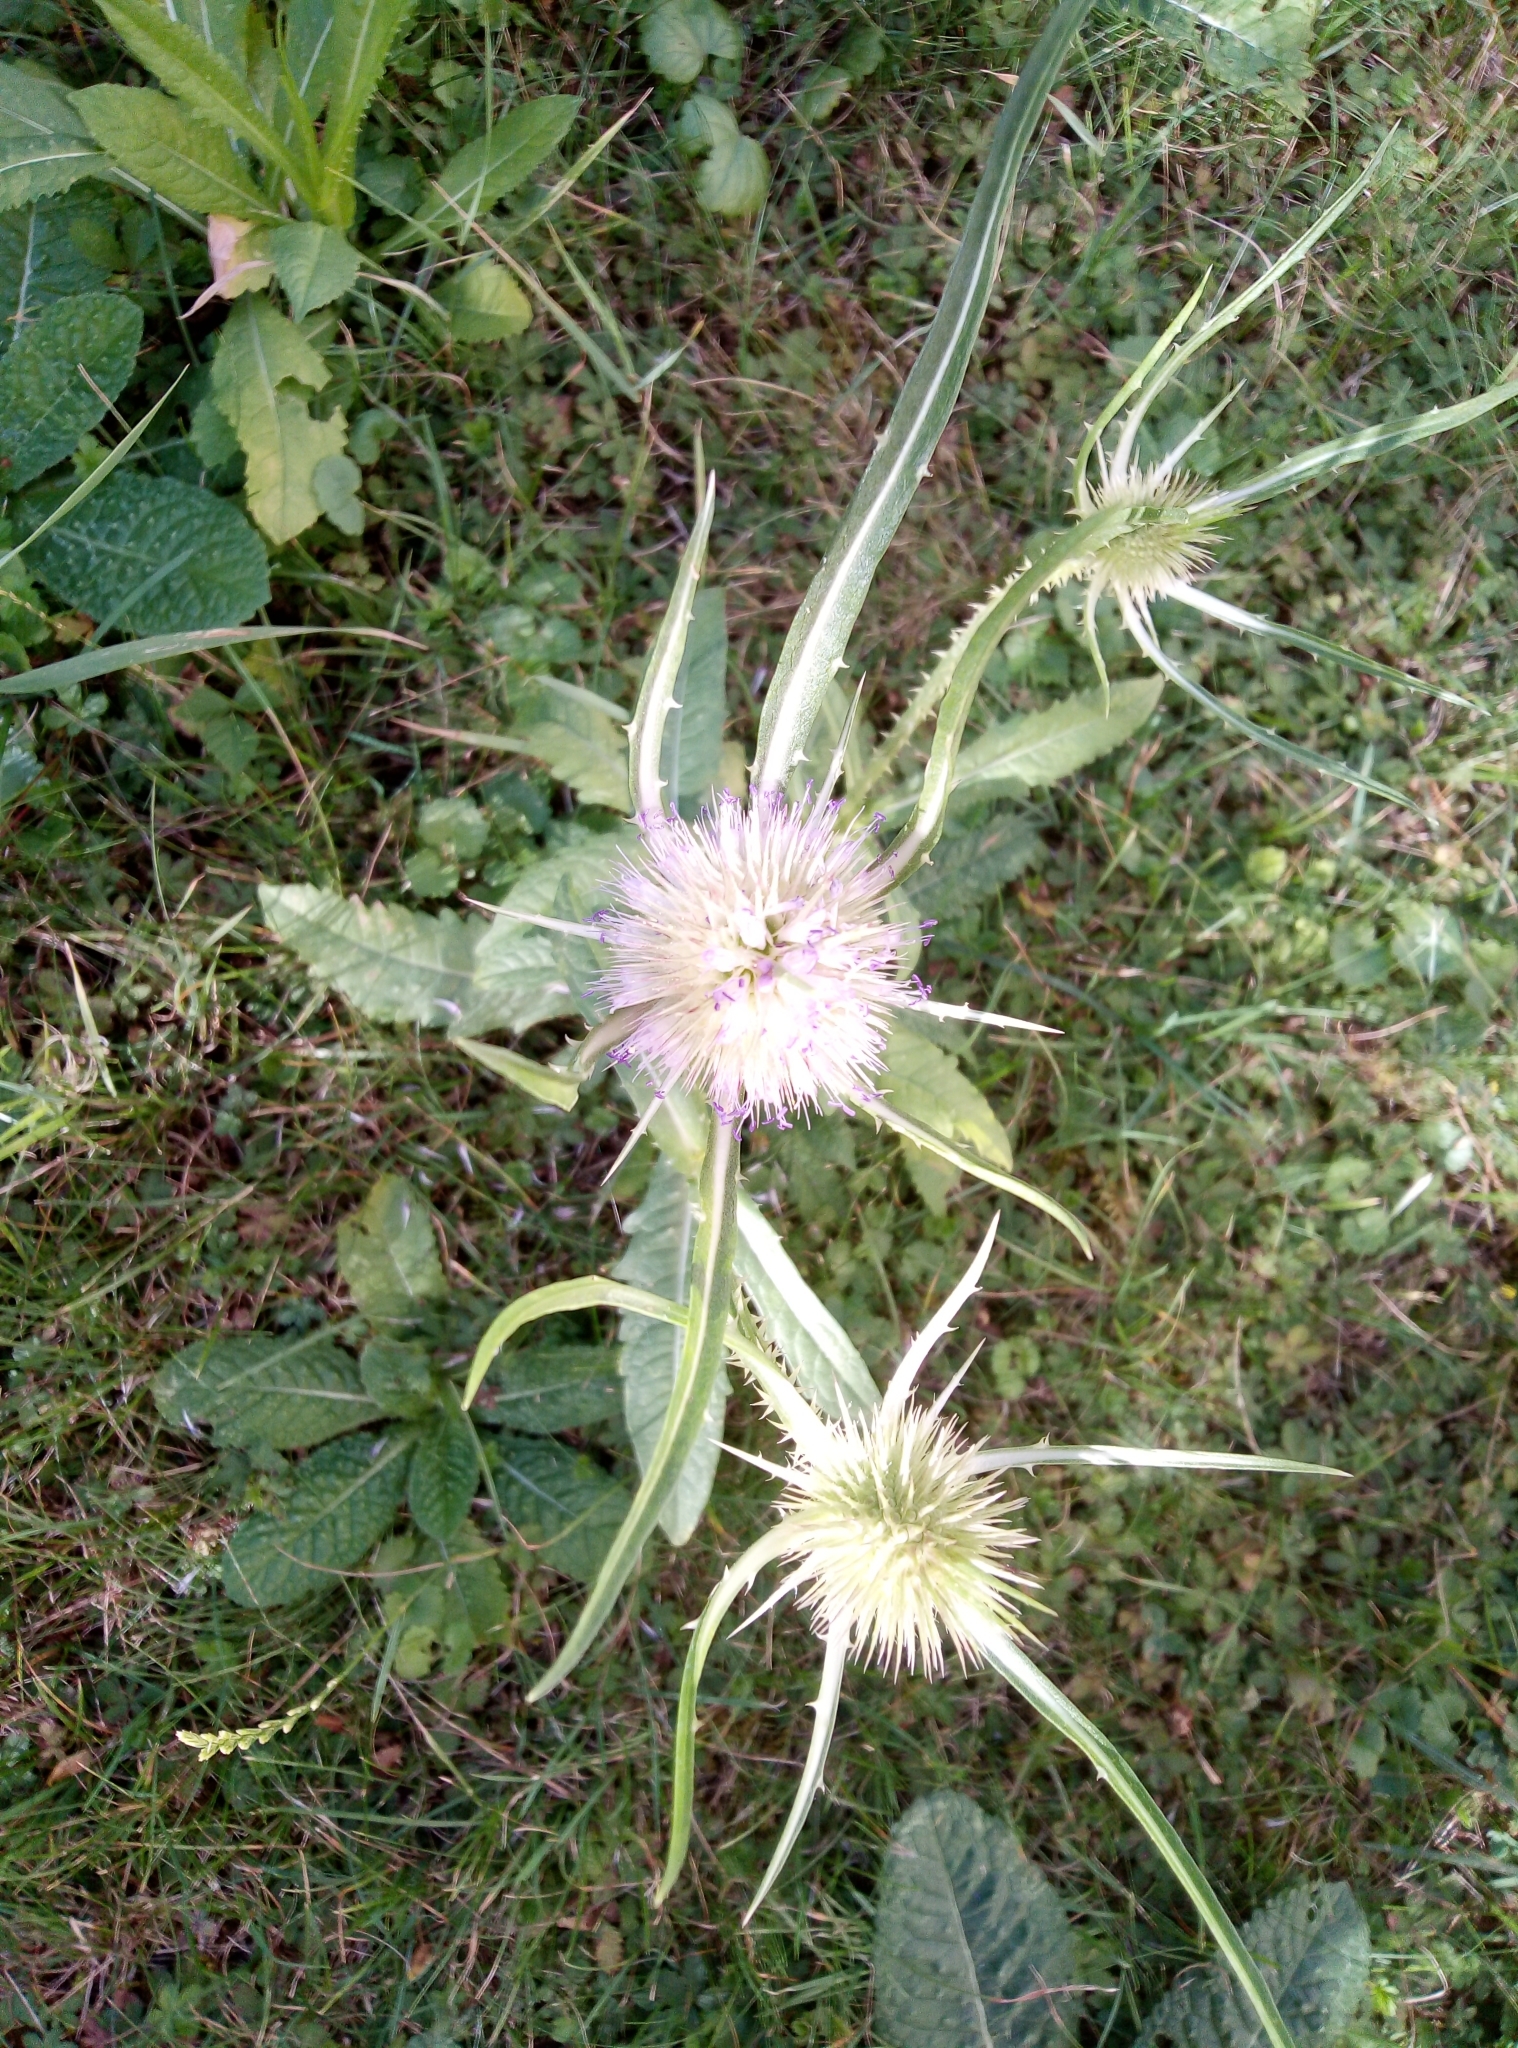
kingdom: Plantae
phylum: Tracheophyta
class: Magnoliopsida
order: Dipsacales
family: Caprifoliaceae
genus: Dipsacus
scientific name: Dipsacus fullonum
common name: Teasel
